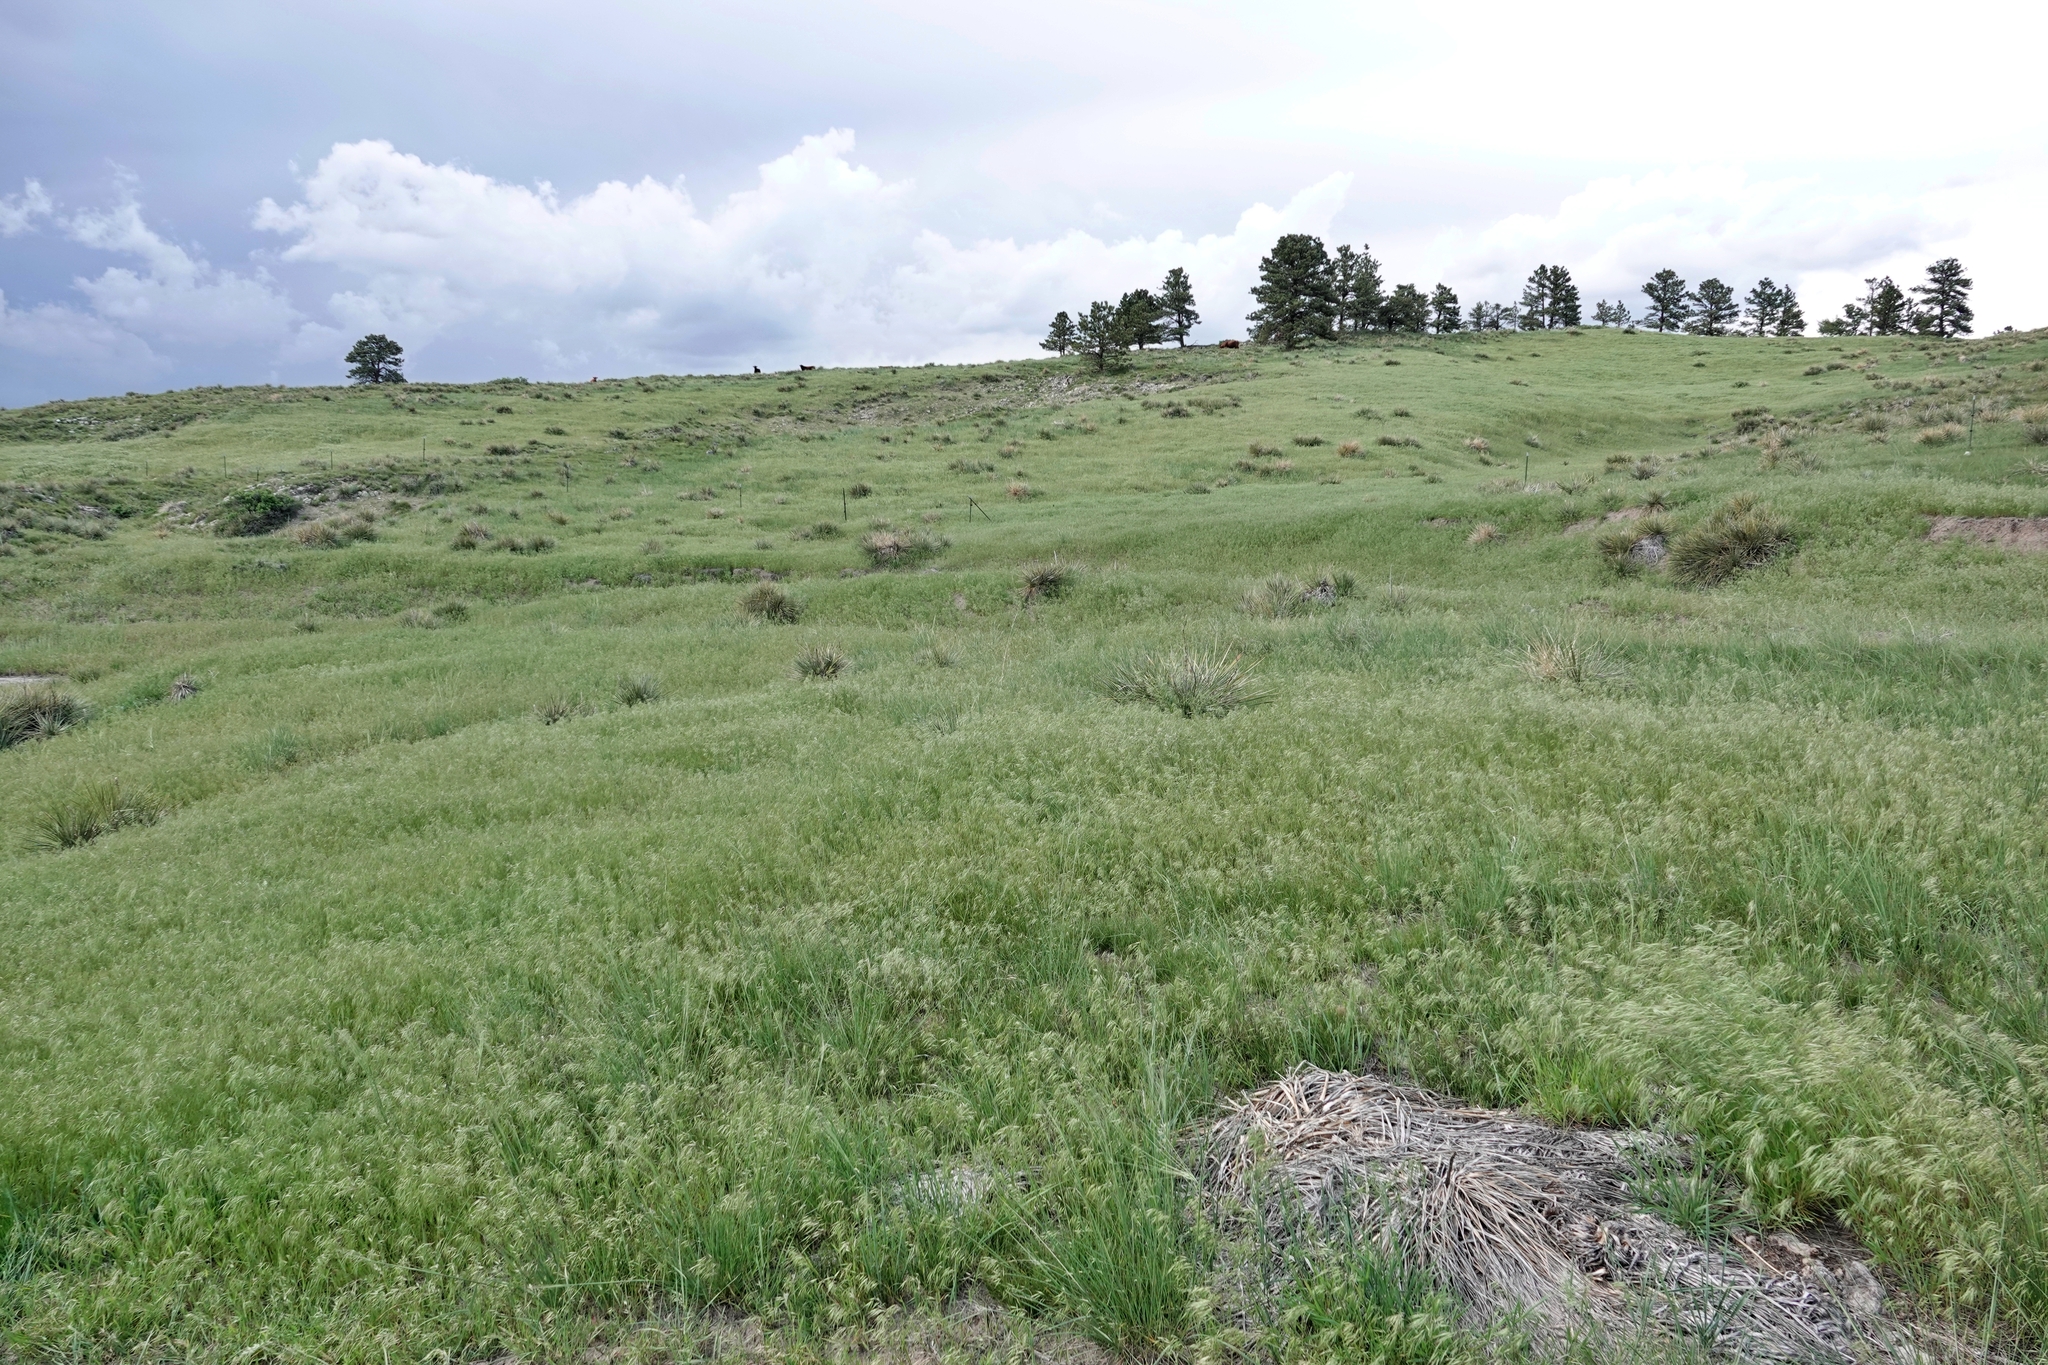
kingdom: Plantae
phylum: Tracheophyta
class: Liliopsida
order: Poales
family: Poaceae
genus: Bromus
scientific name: Bromus tectorum
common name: Cheatgrass
